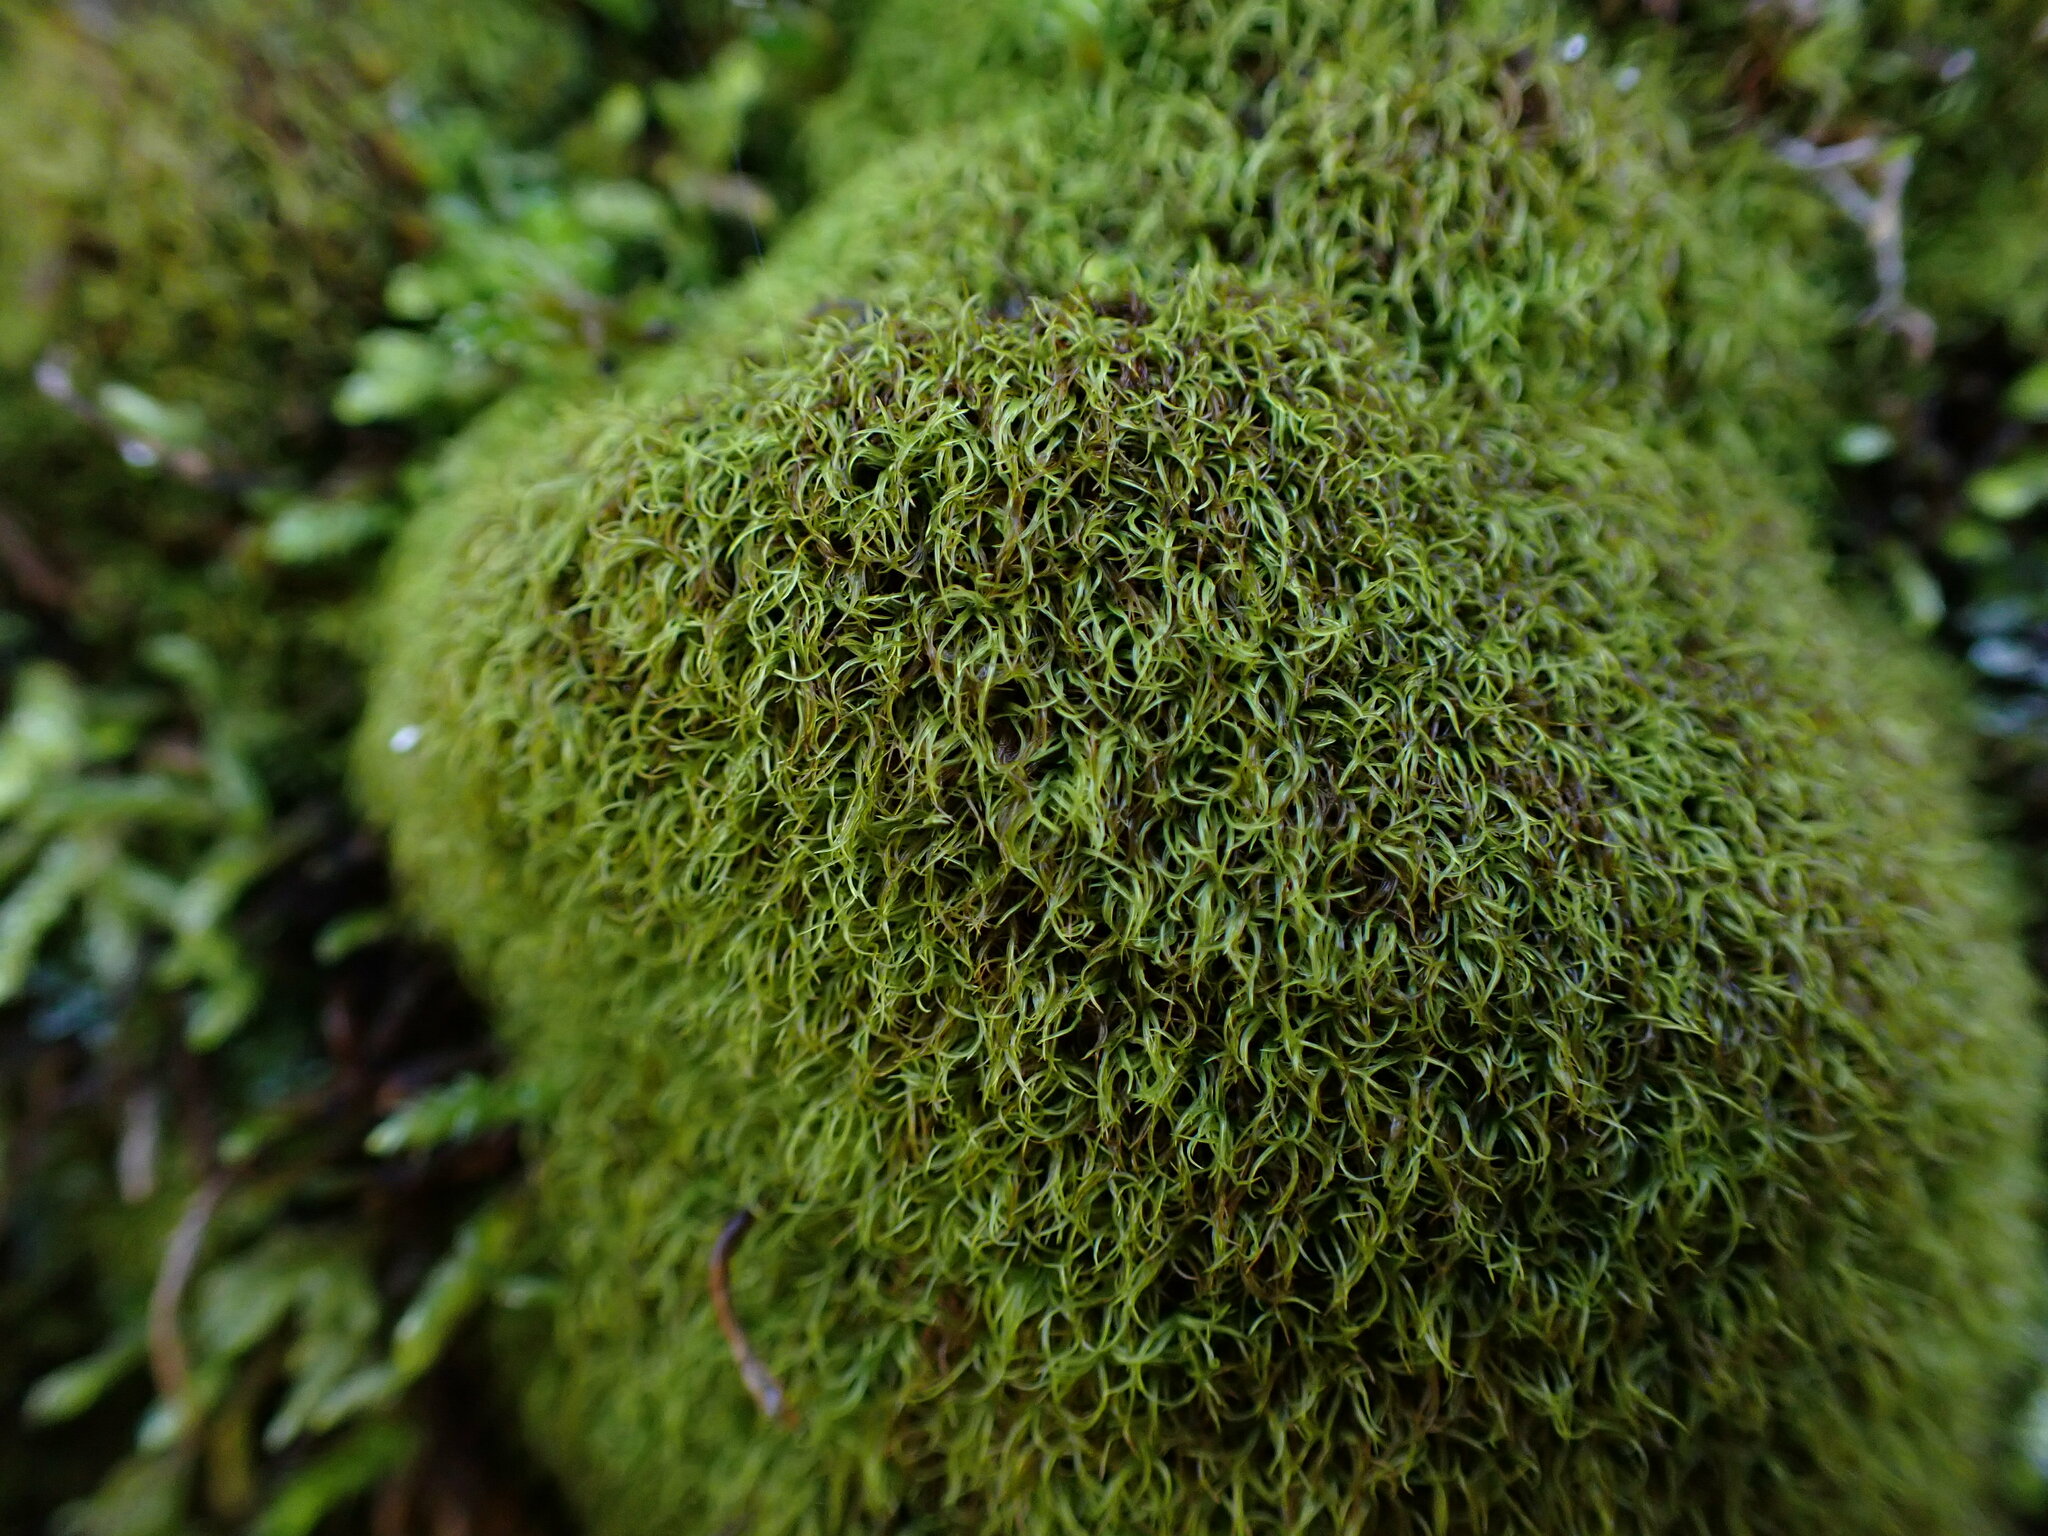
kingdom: Plantae
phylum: Bryophyta
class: Bryopsida
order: Dicranales
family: Amphidiaceae
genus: Amphidium
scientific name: Amphidium californicum
